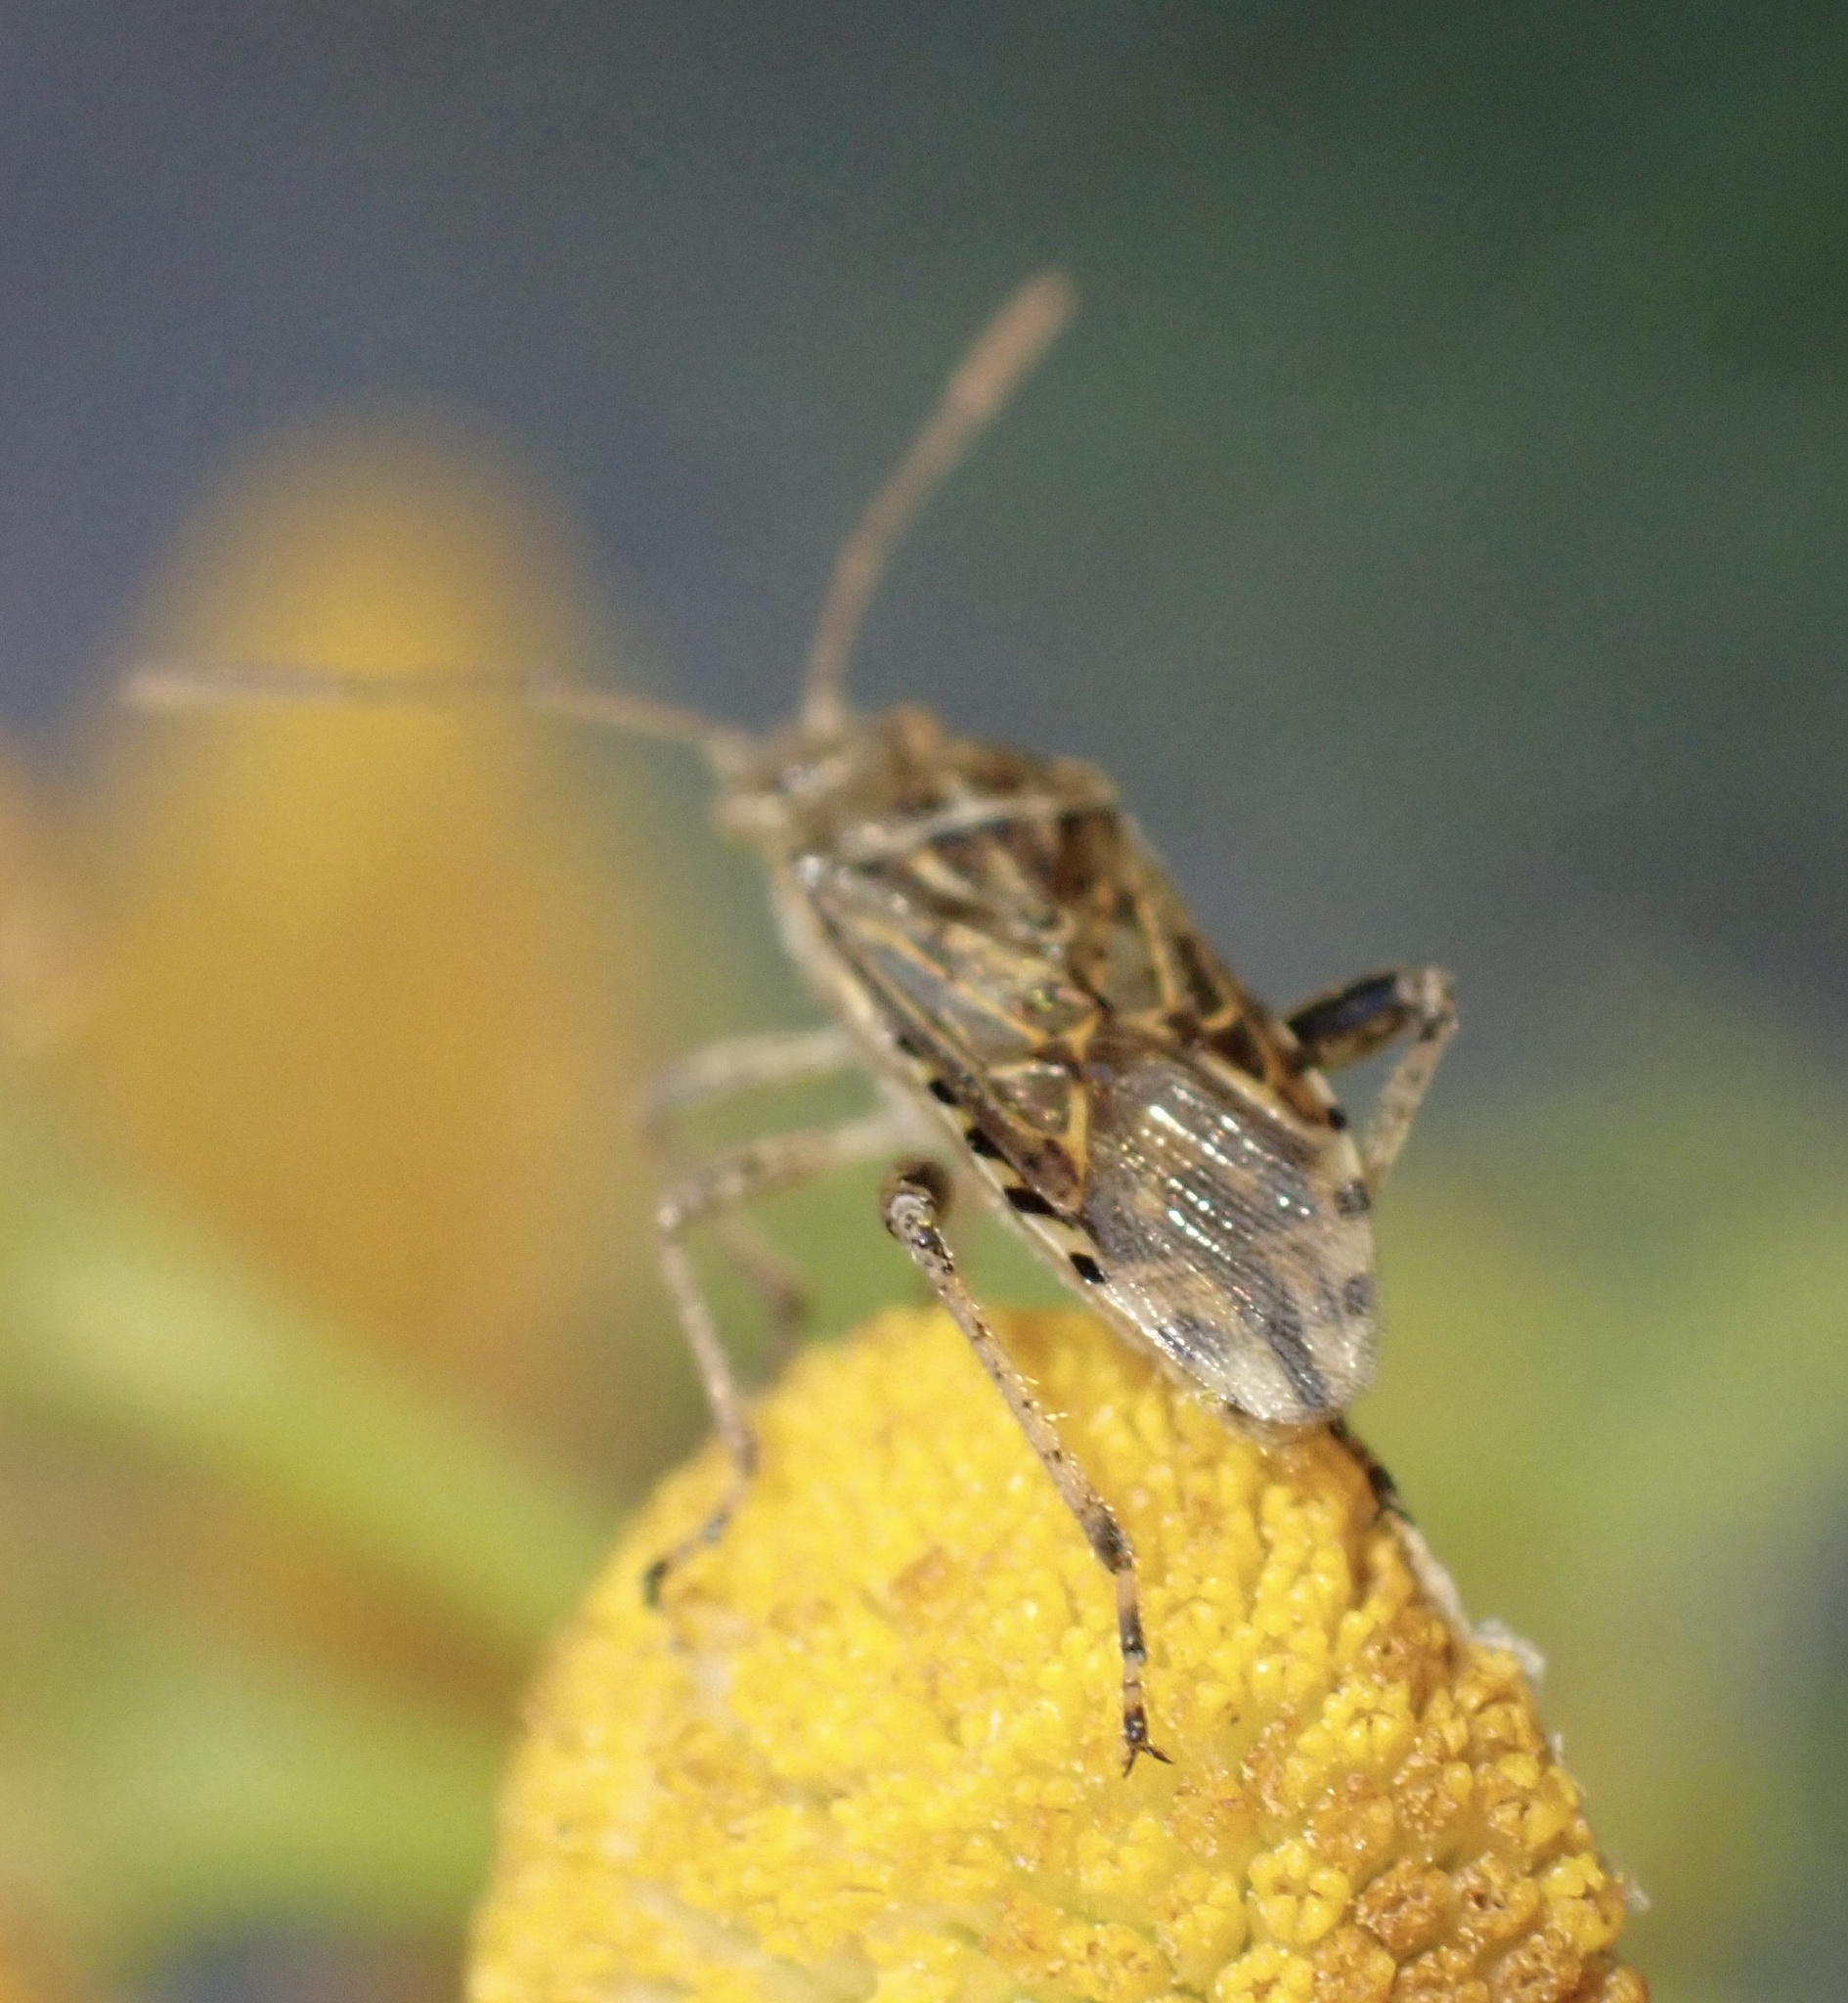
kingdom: Animalia
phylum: Arthropoda
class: Insecta
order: Hemiptera
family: Rhopalidae
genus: Stictopleurus
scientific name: Stictopleurus punctatonervosus
